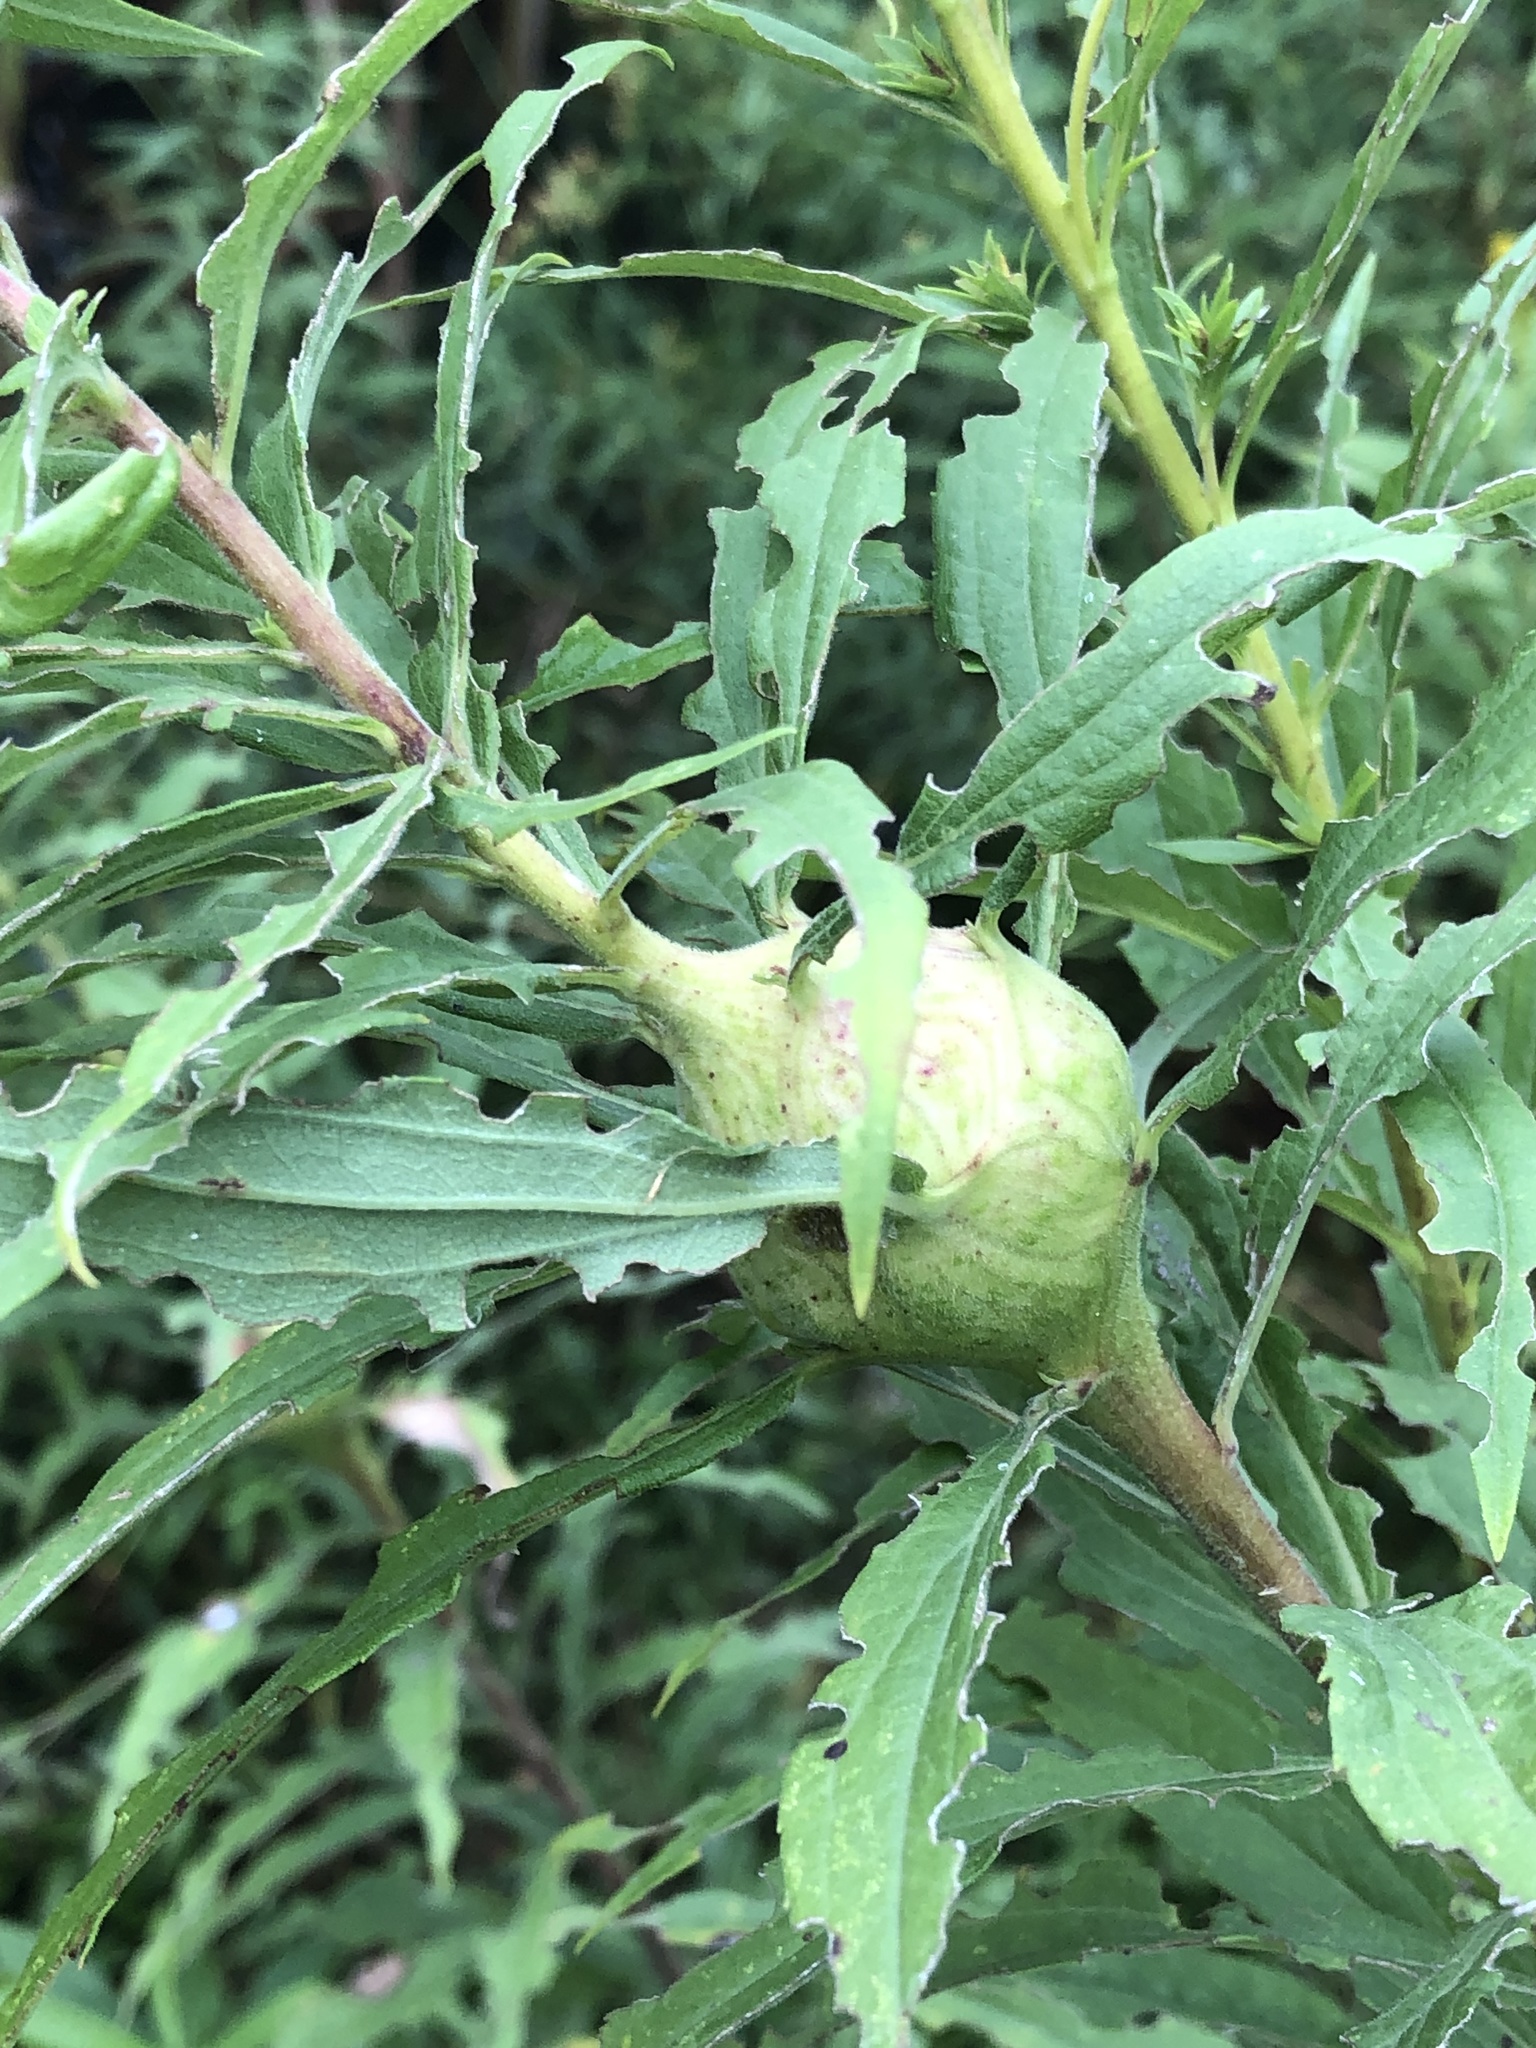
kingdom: Animalia
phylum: Arthropoda
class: Insecta
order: Diptera
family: Tephritidae
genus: Eurosta
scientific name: Eurosta solidaginis
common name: Goldenrod gall fly
